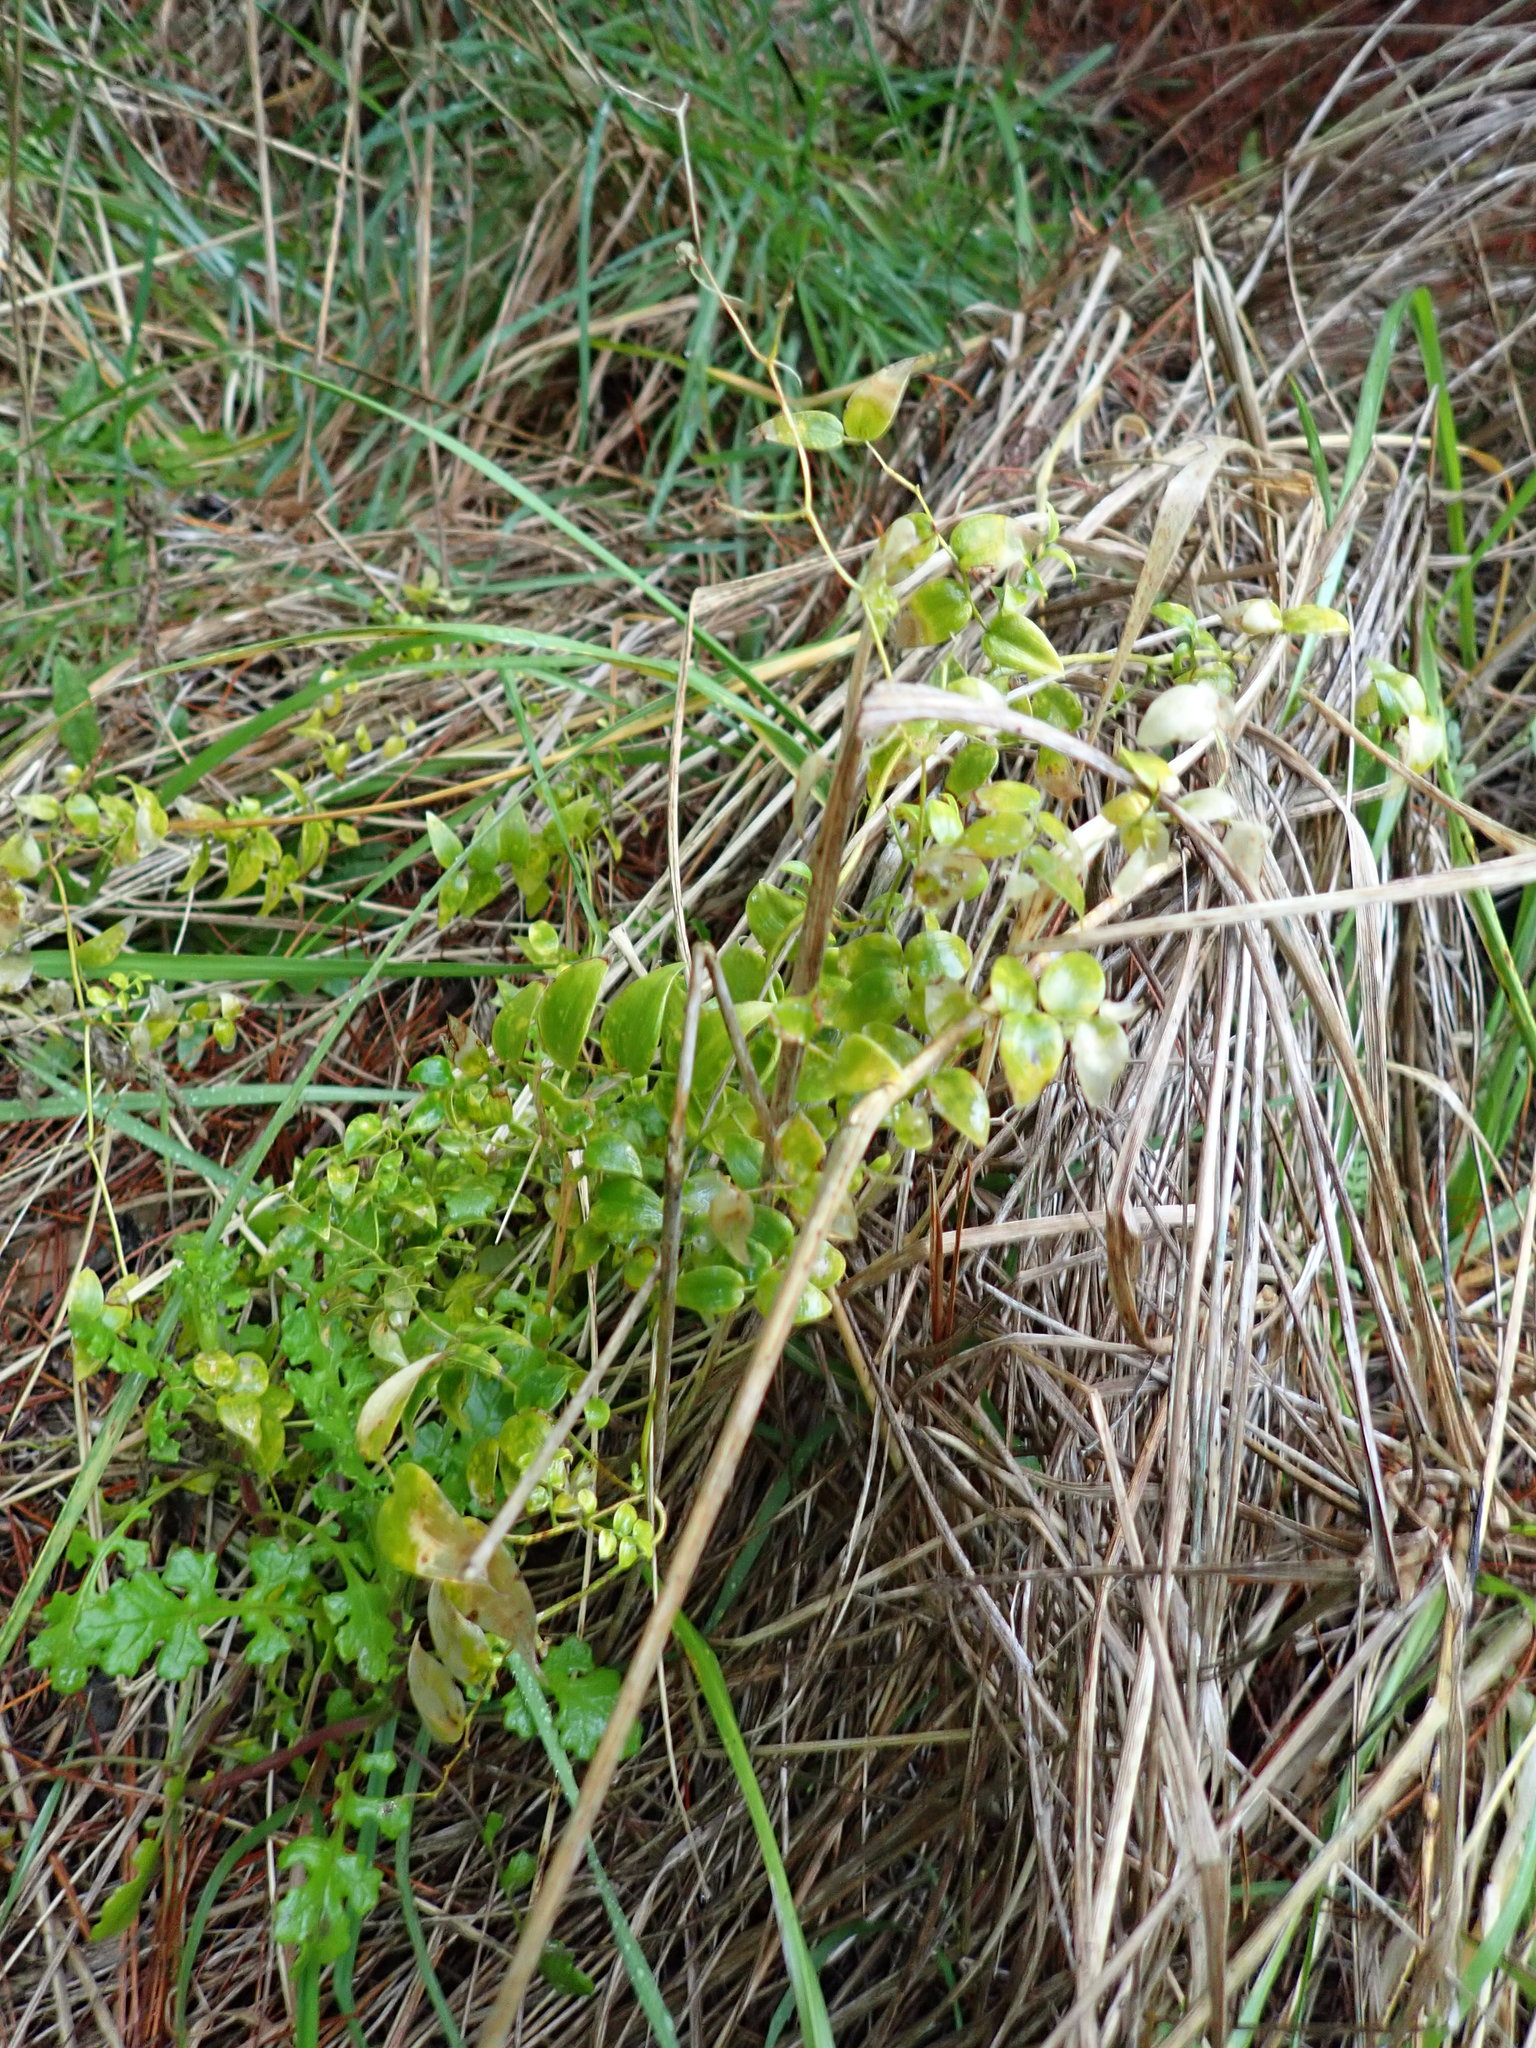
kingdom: Plantae
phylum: Tracheophyta
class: Liliopsida
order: Asparagales
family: Asparagaceae
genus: Asparagus
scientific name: Asparagus asparagoides
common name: African asparagus fern
